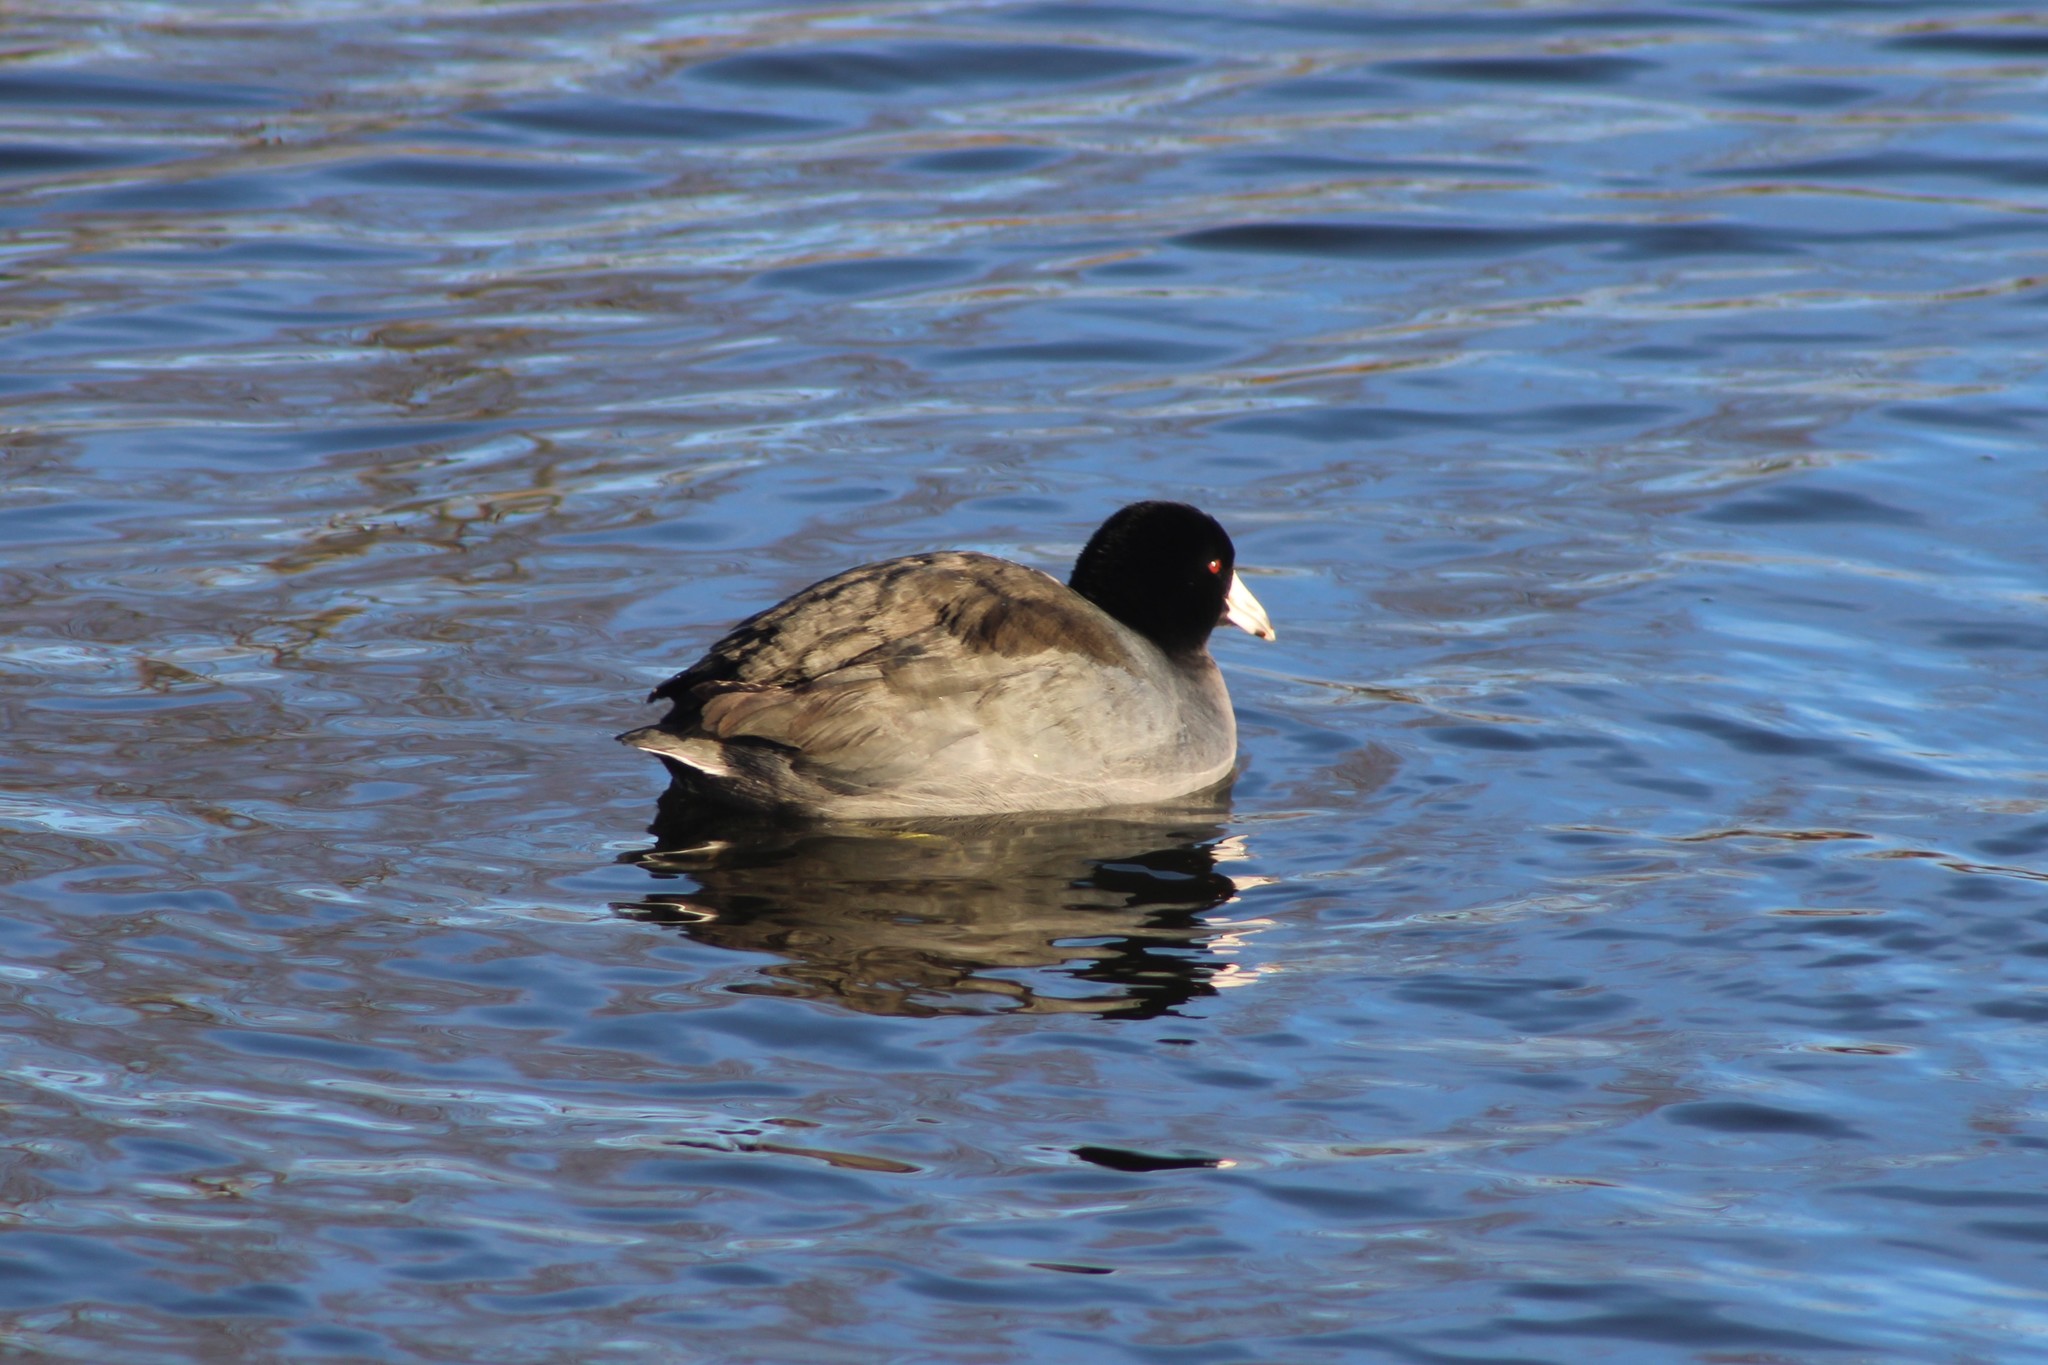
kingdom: Animalia
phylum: Chordata
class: Aves
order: Gruiformes
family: Rallidae
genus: Fulica
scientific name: Fulica americana
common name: American coot
